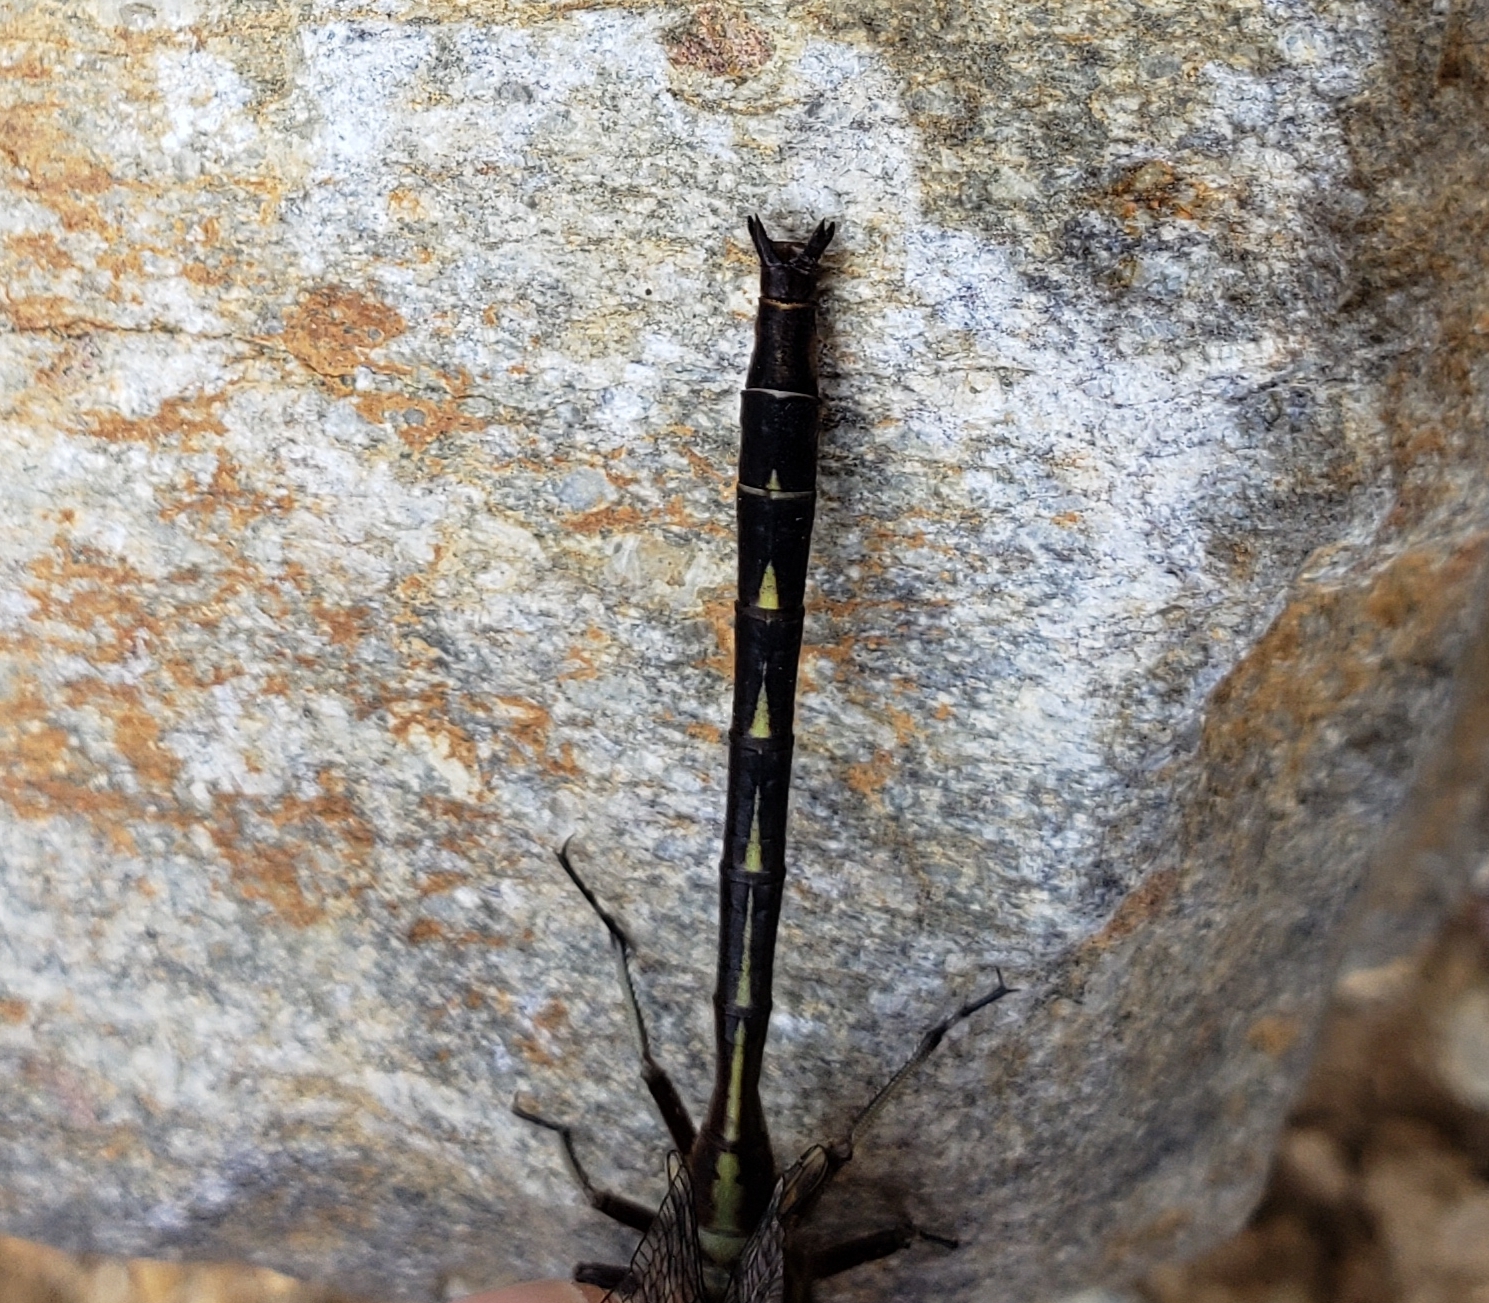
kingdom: Animalia
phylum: Arthropoda
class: Insecta
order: Odonata
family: Gomphidae
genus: Phanogomphus
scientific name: Phanogomphus lividus
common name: Ashy clubtail
